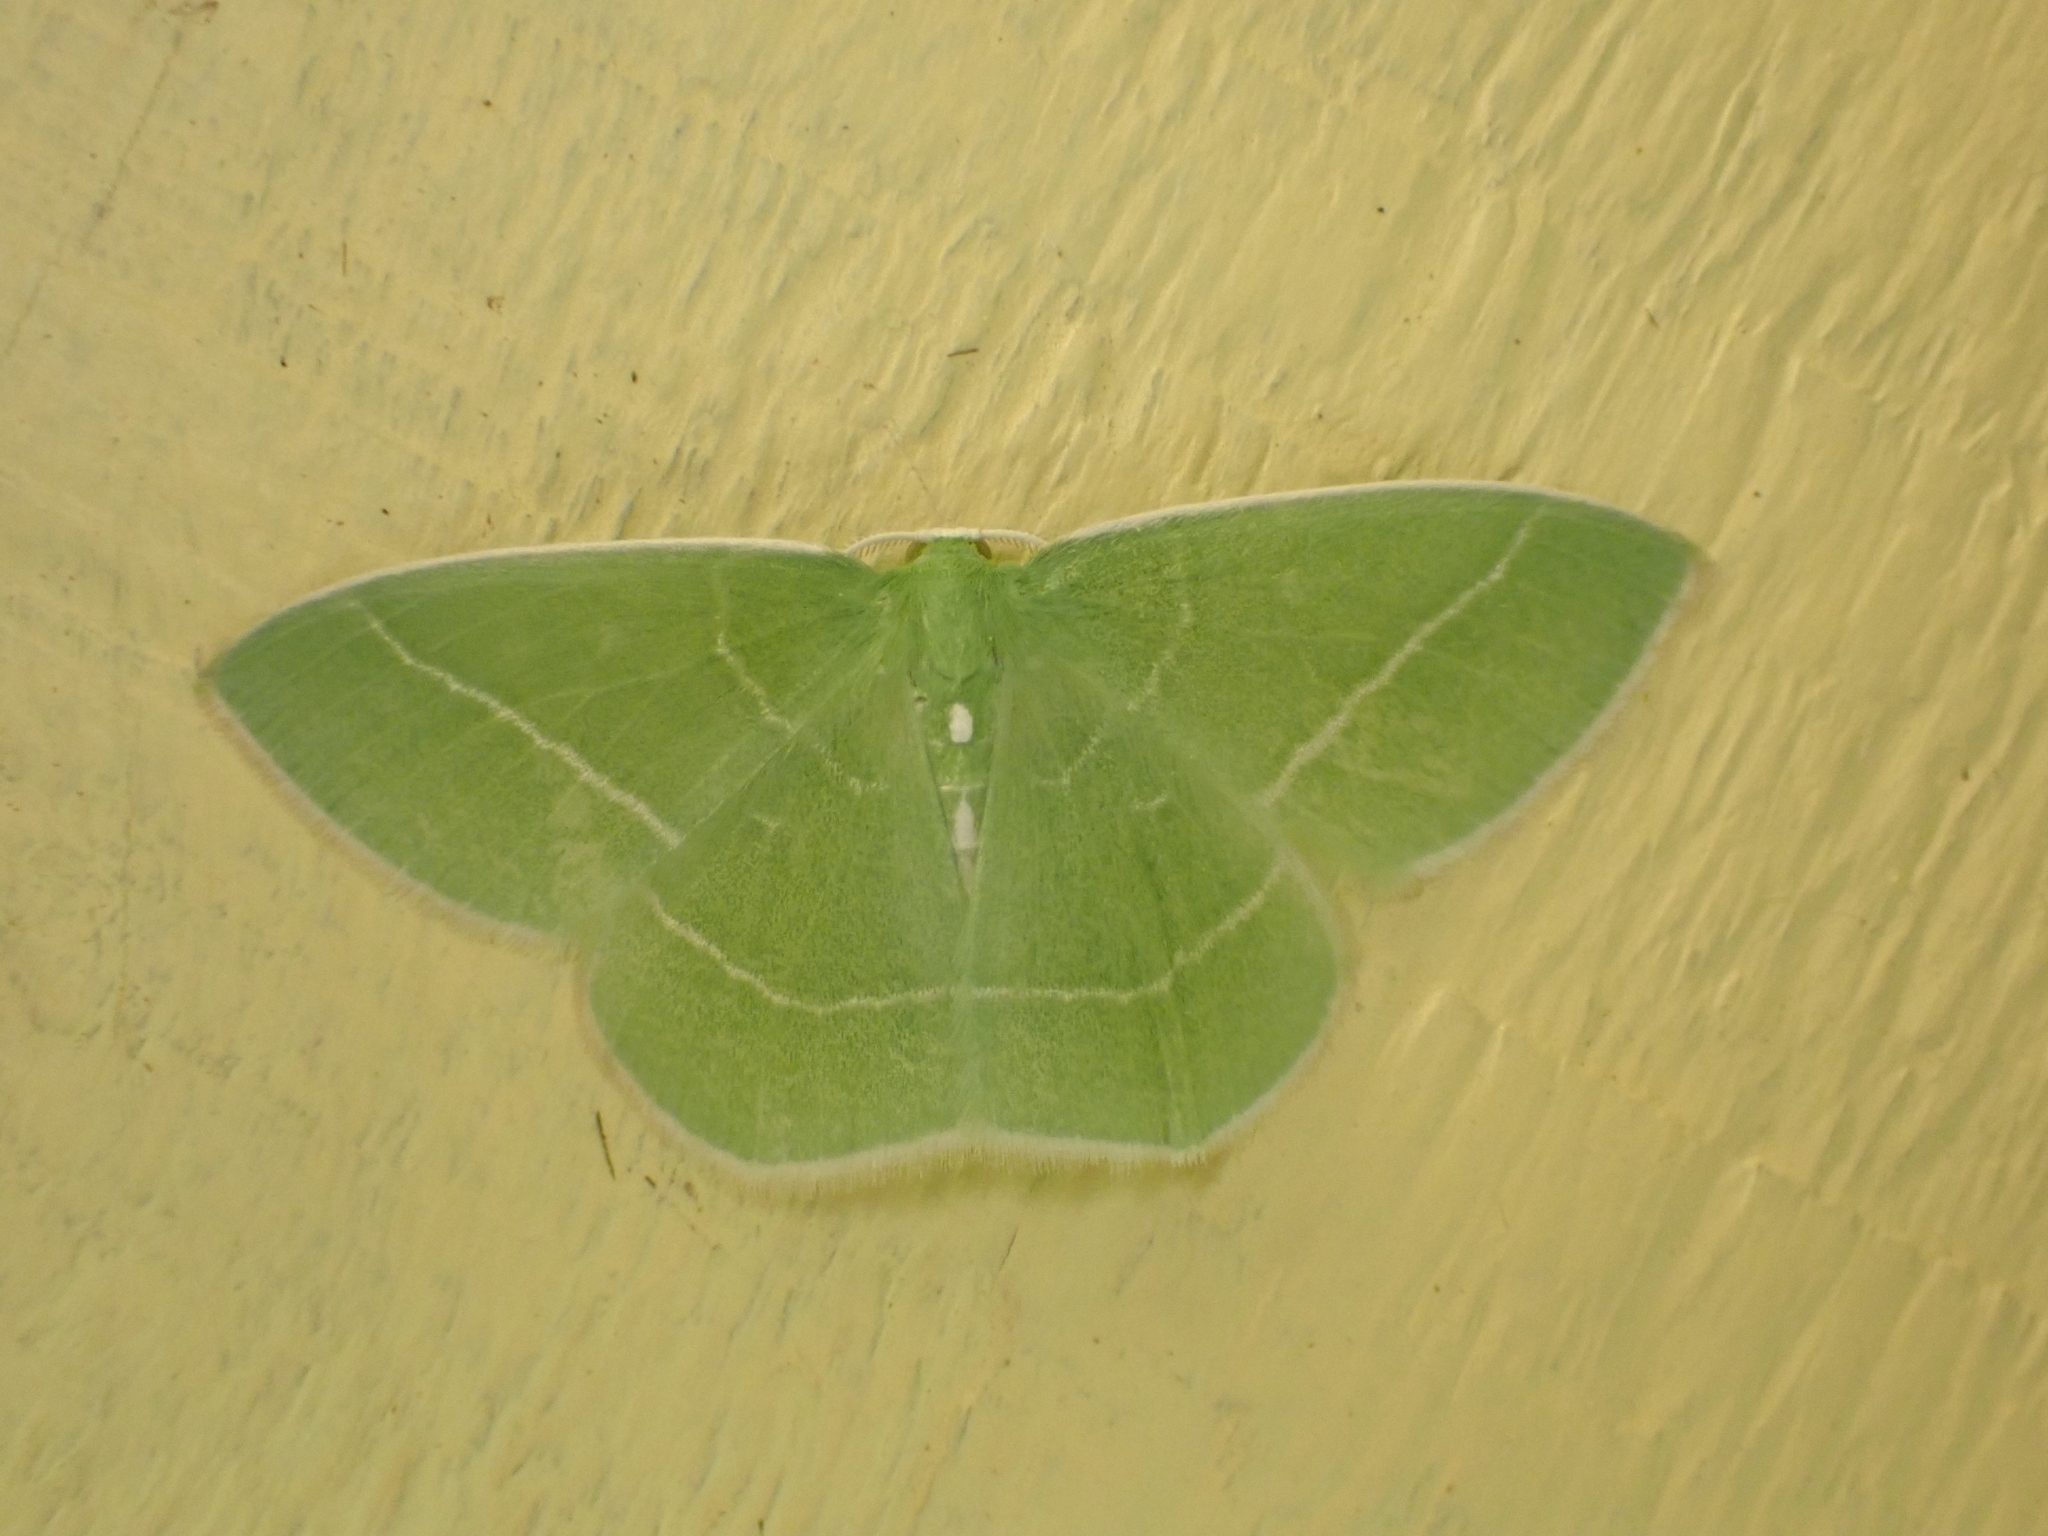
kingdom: Animalia
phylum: Arthropoda
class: Insecta
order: Lepidoptera
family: Geometridae
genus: Nemoria
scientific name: Nemoria mimosaria
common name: White-fringed emerald
